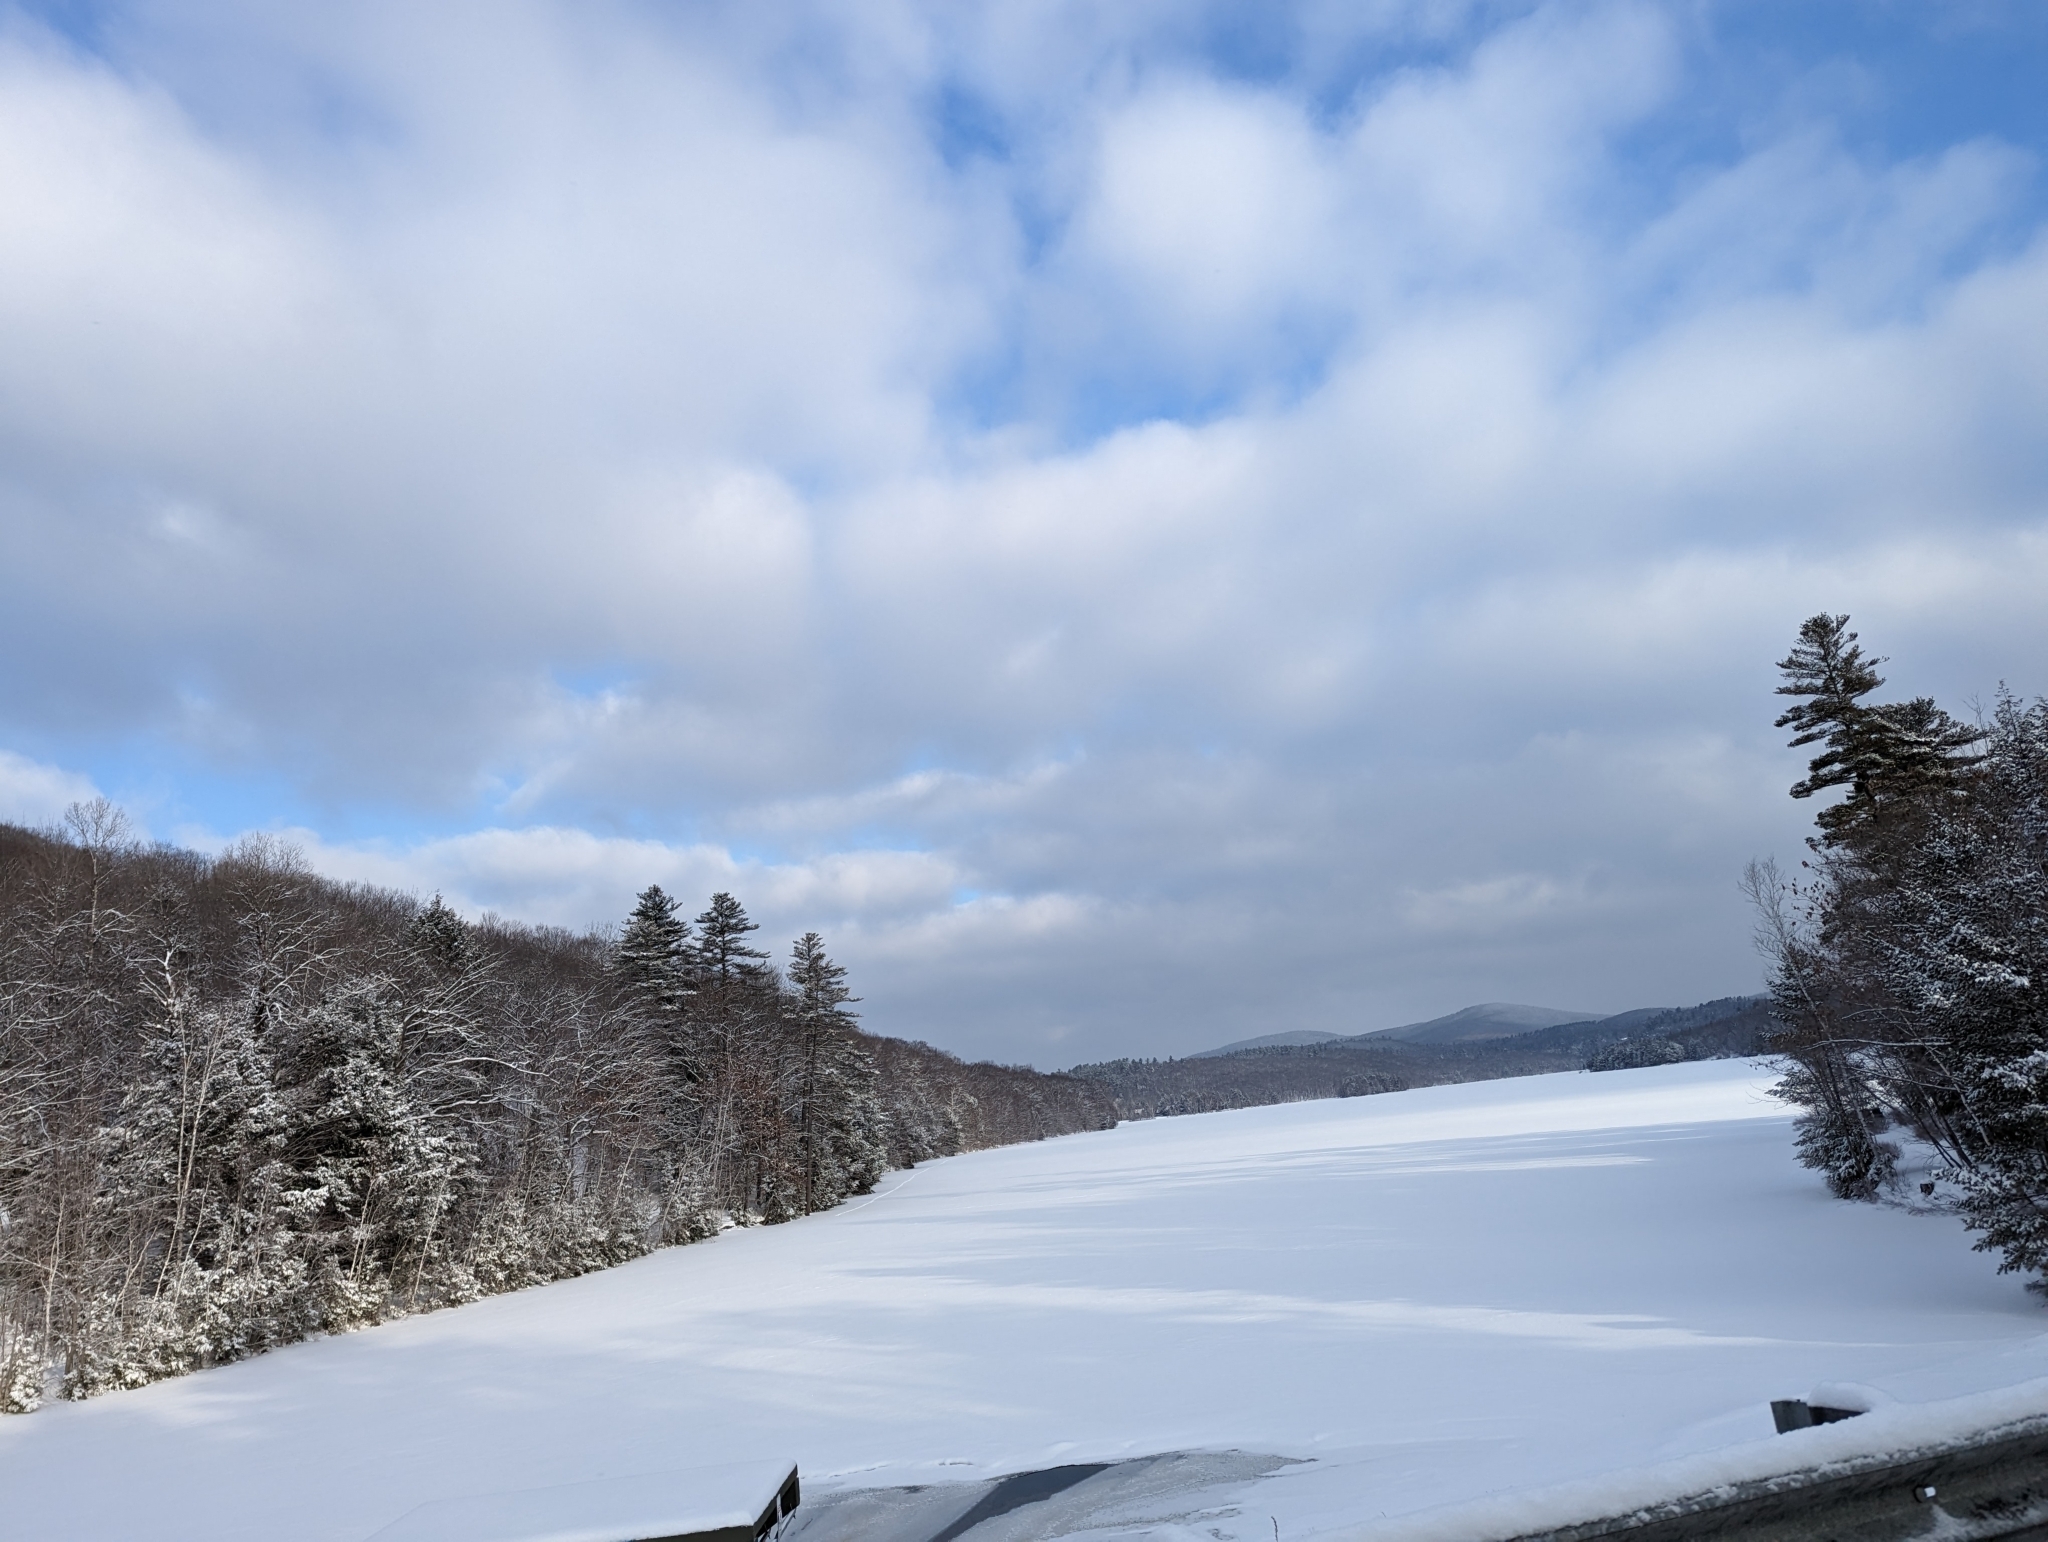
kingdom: Plantae
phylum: Tracheophyta
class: Pinopsida
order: Pinales
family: Pinaceae
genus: Pinus
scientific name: Pinus strobus
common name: Weymouth pine
